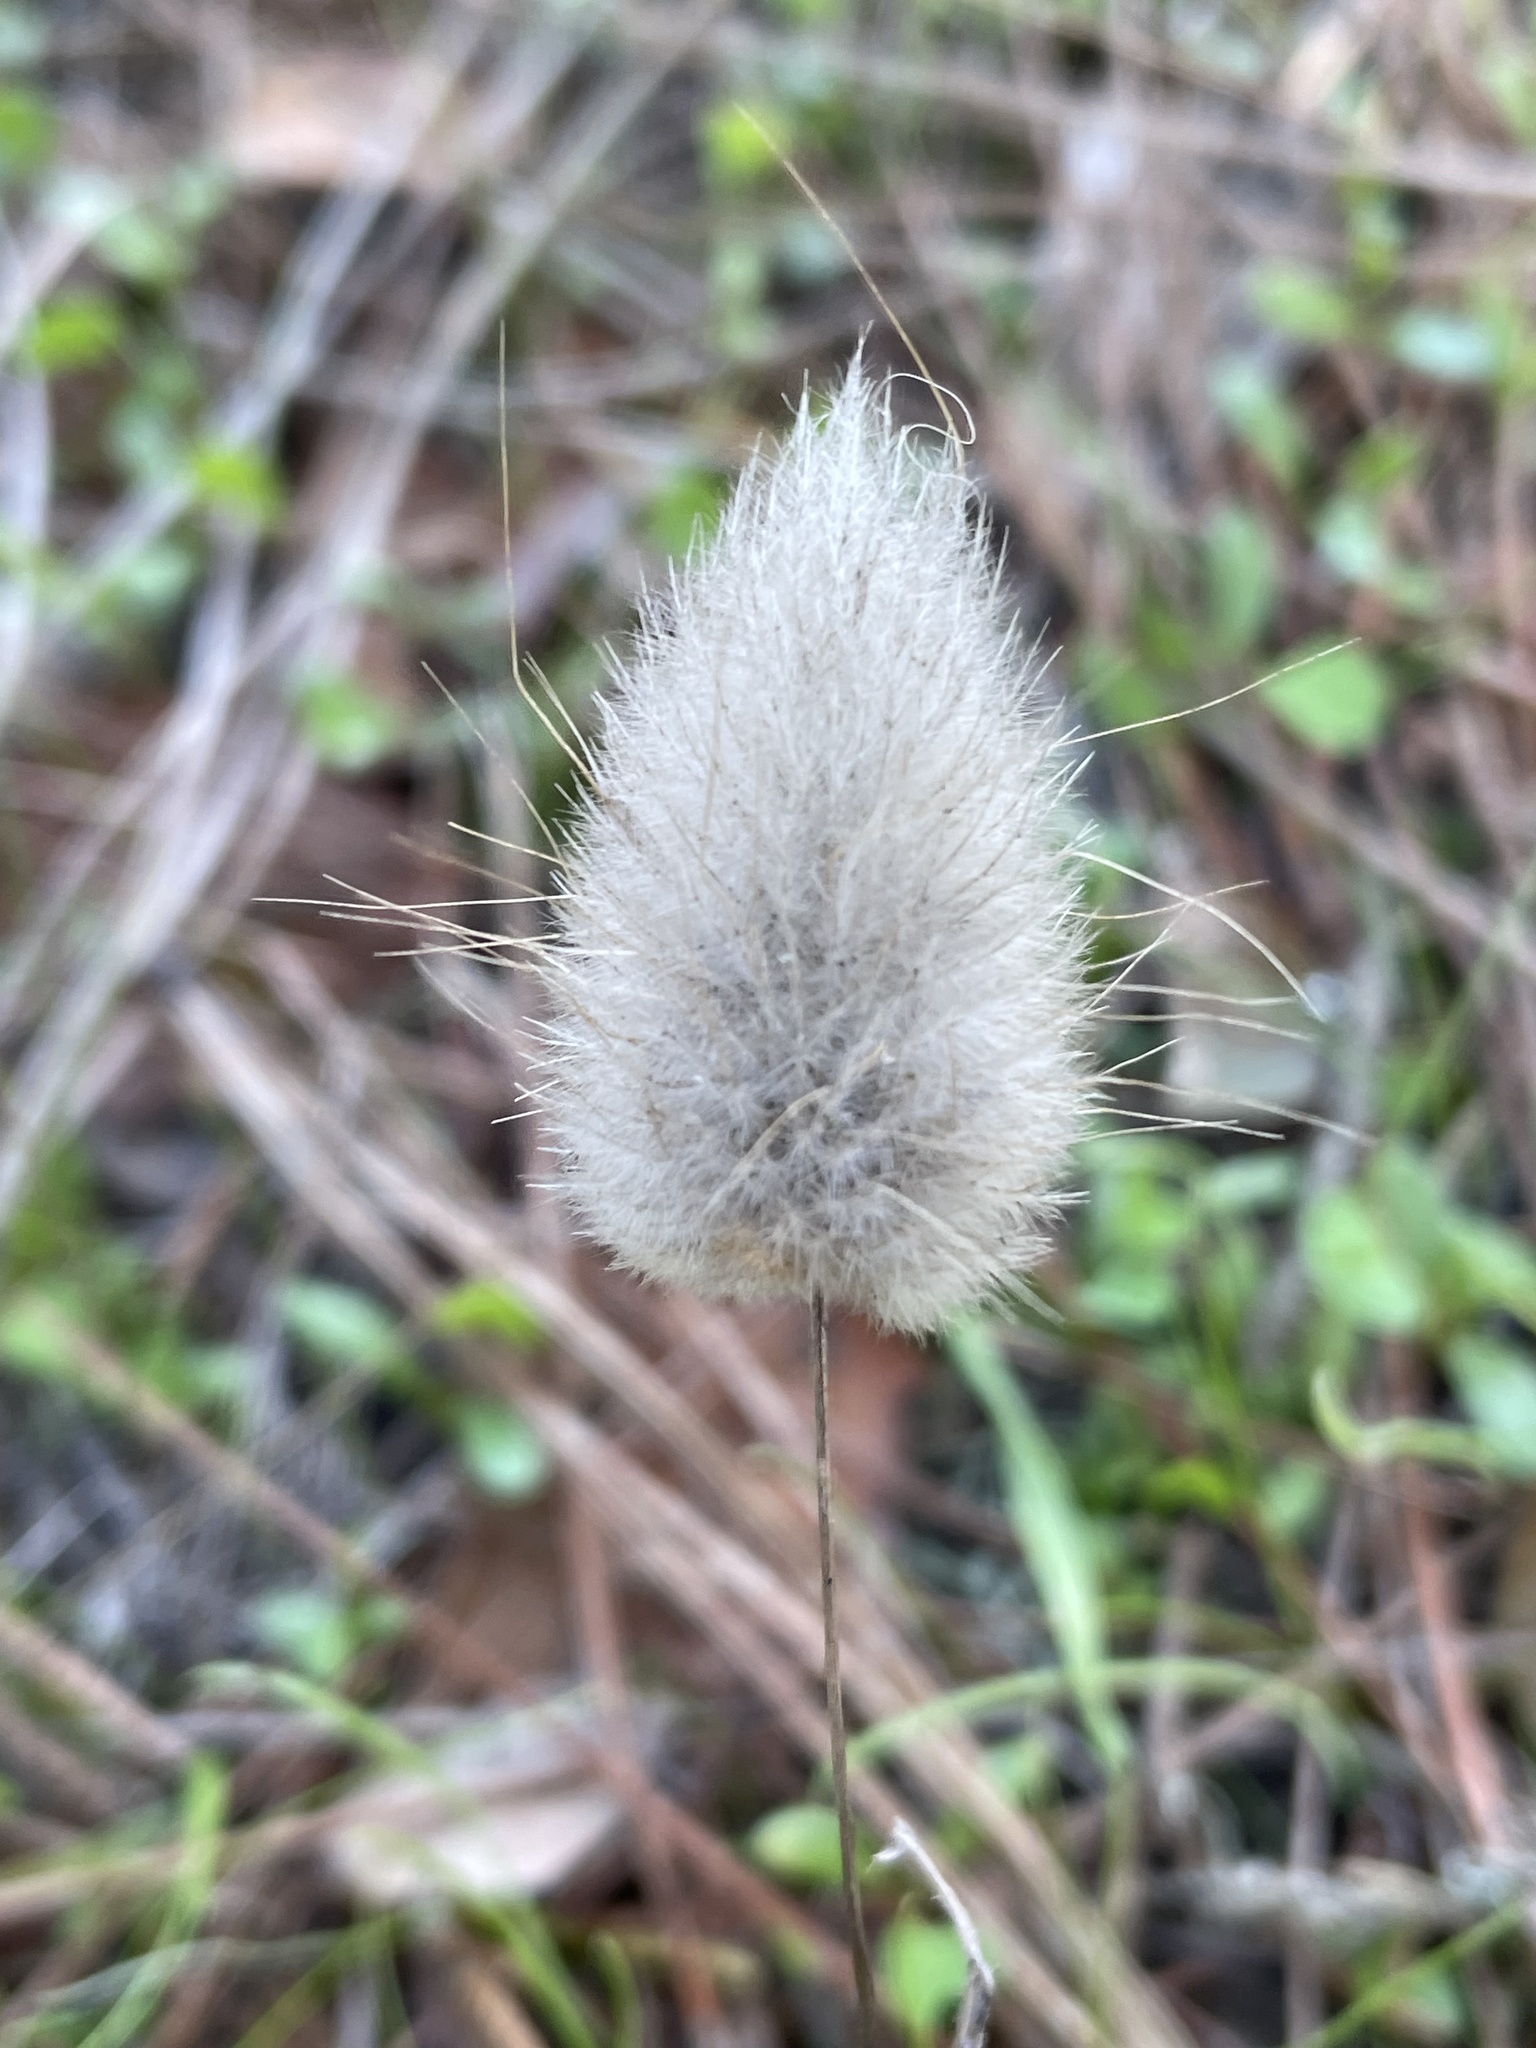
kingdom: Plantae
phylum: Tracheophyta
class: Liliopsida
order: Poales
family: Poaceae
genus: Lagurus
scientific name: Lagurus ovatus
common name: Hare's-tail
